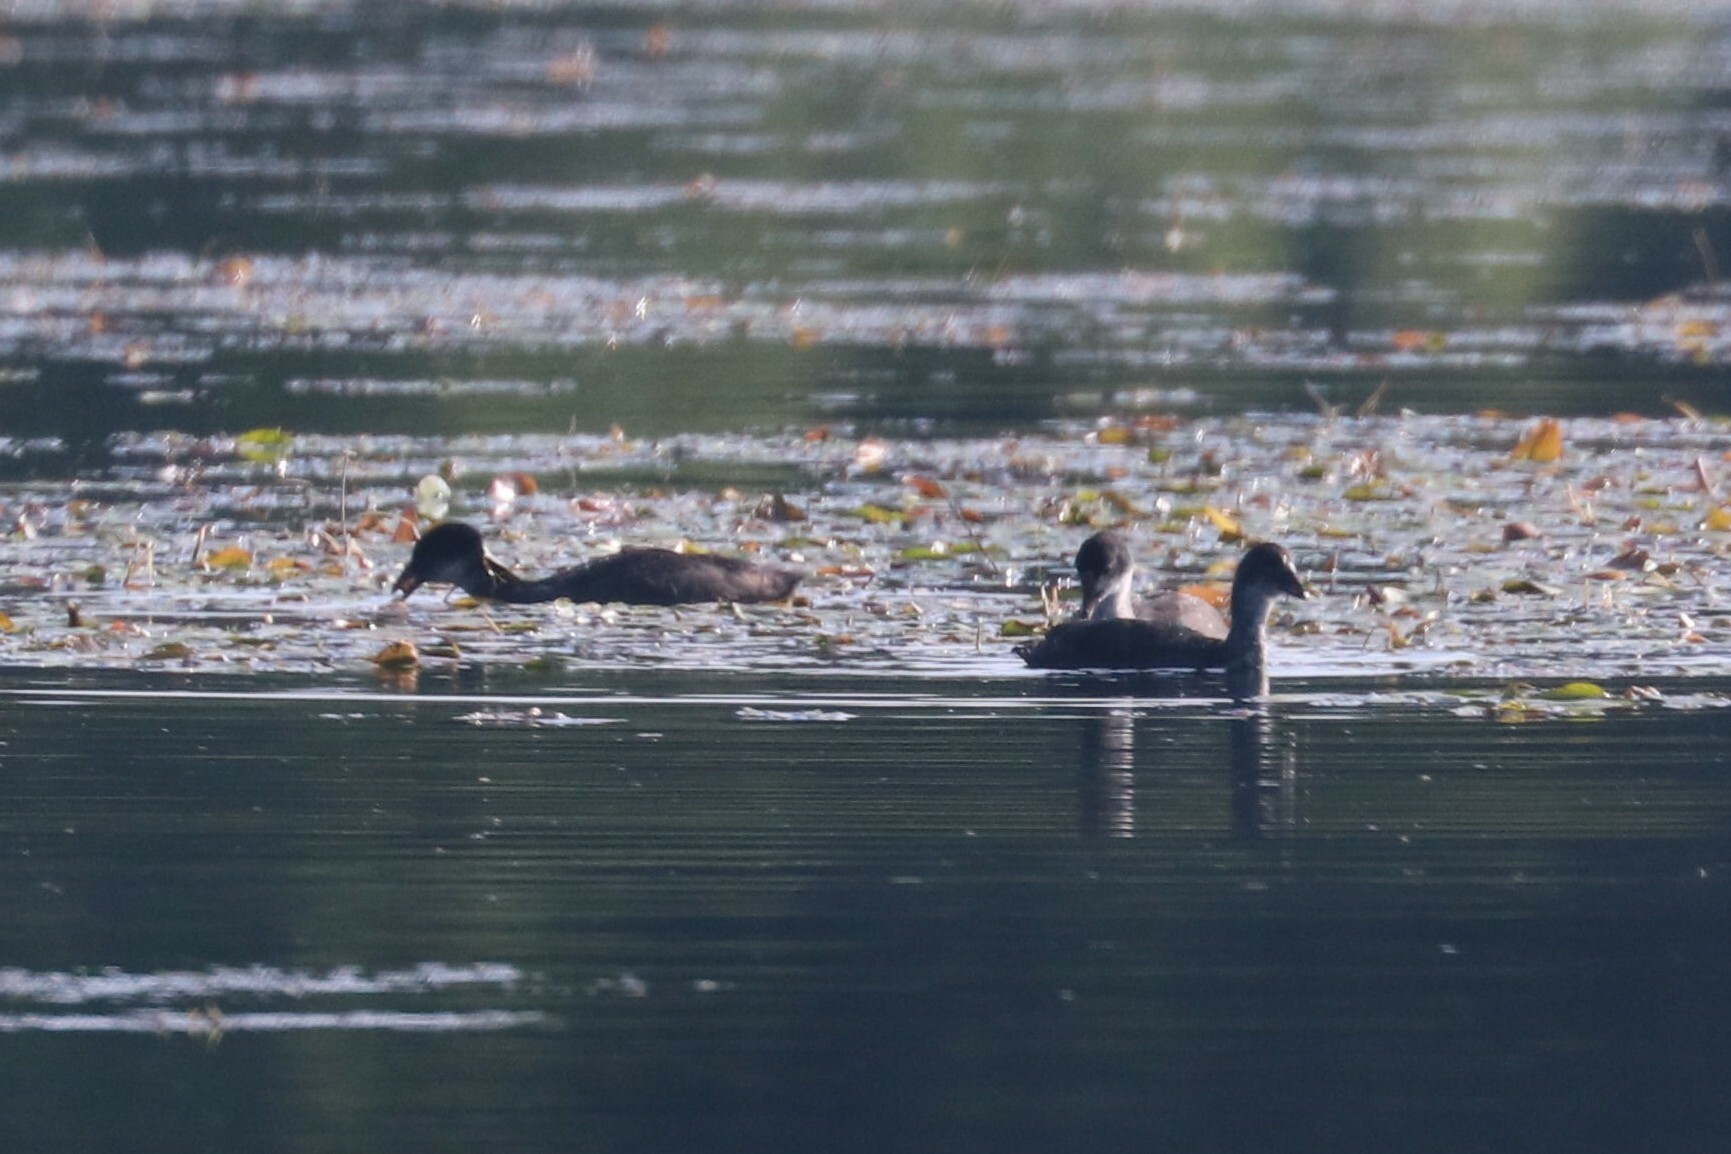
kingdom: Animalia
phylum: Chordata
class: Aves
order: Gruiformes
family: Rallidae
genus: Fulica
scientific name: Fulica atra
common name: Eurasian coot
